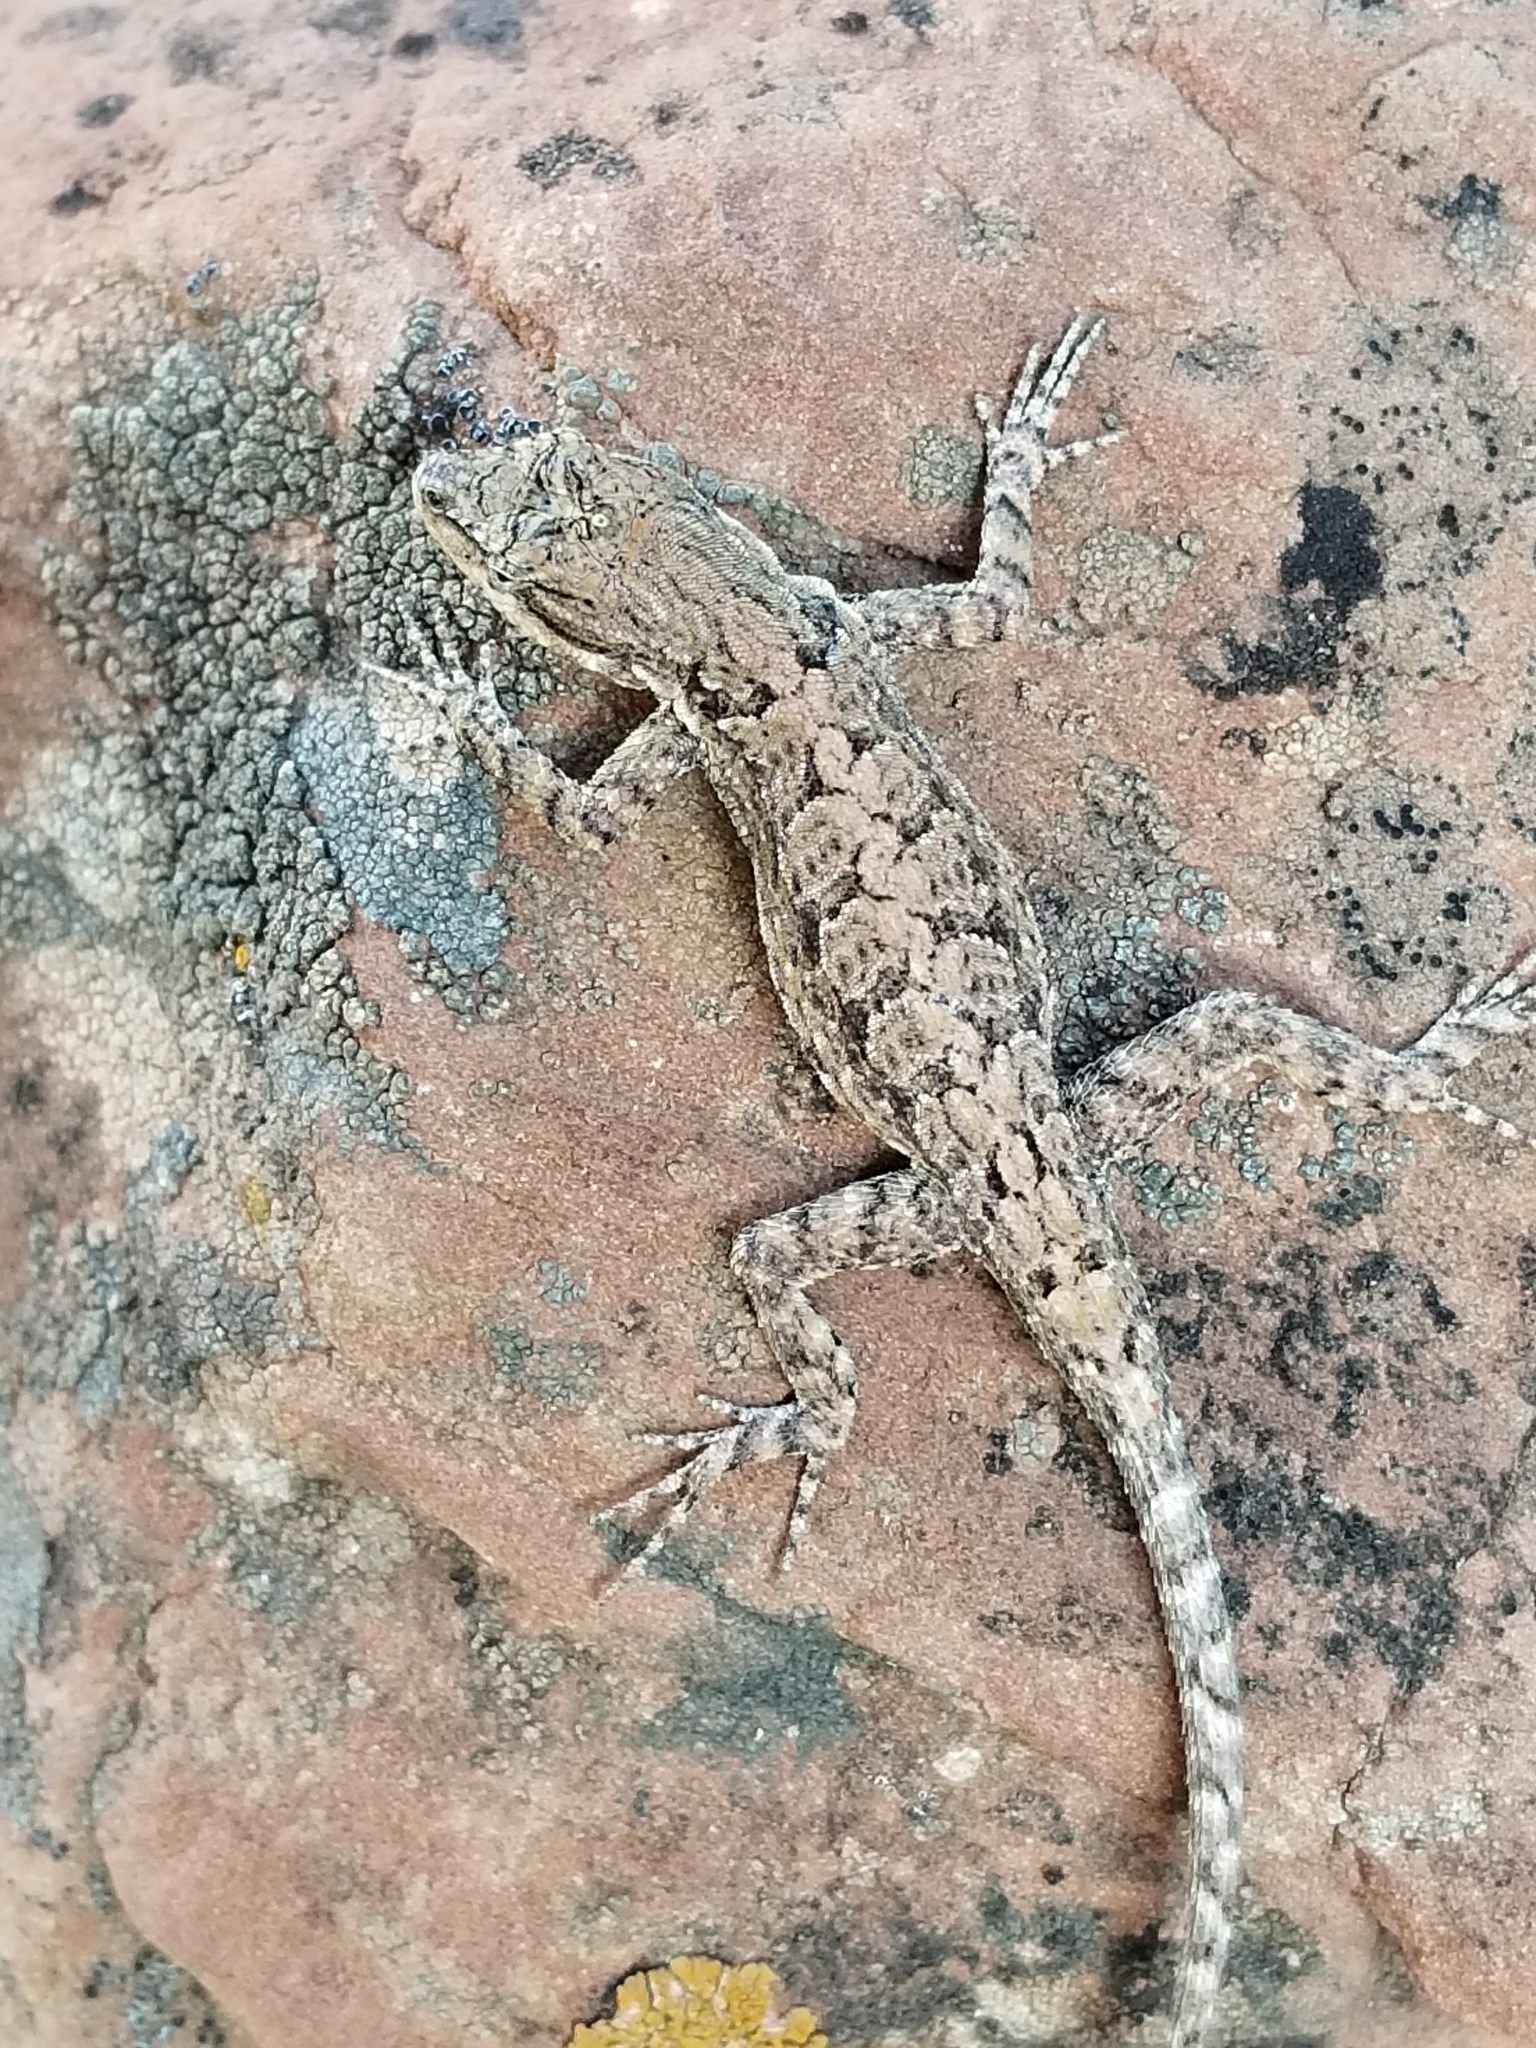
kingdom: Animalia
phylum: Chordata
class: Squamata
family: Phrynosomatidae
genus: Urosaurus
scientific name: Urosaurus ornatus
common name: Ornate tree lizard
